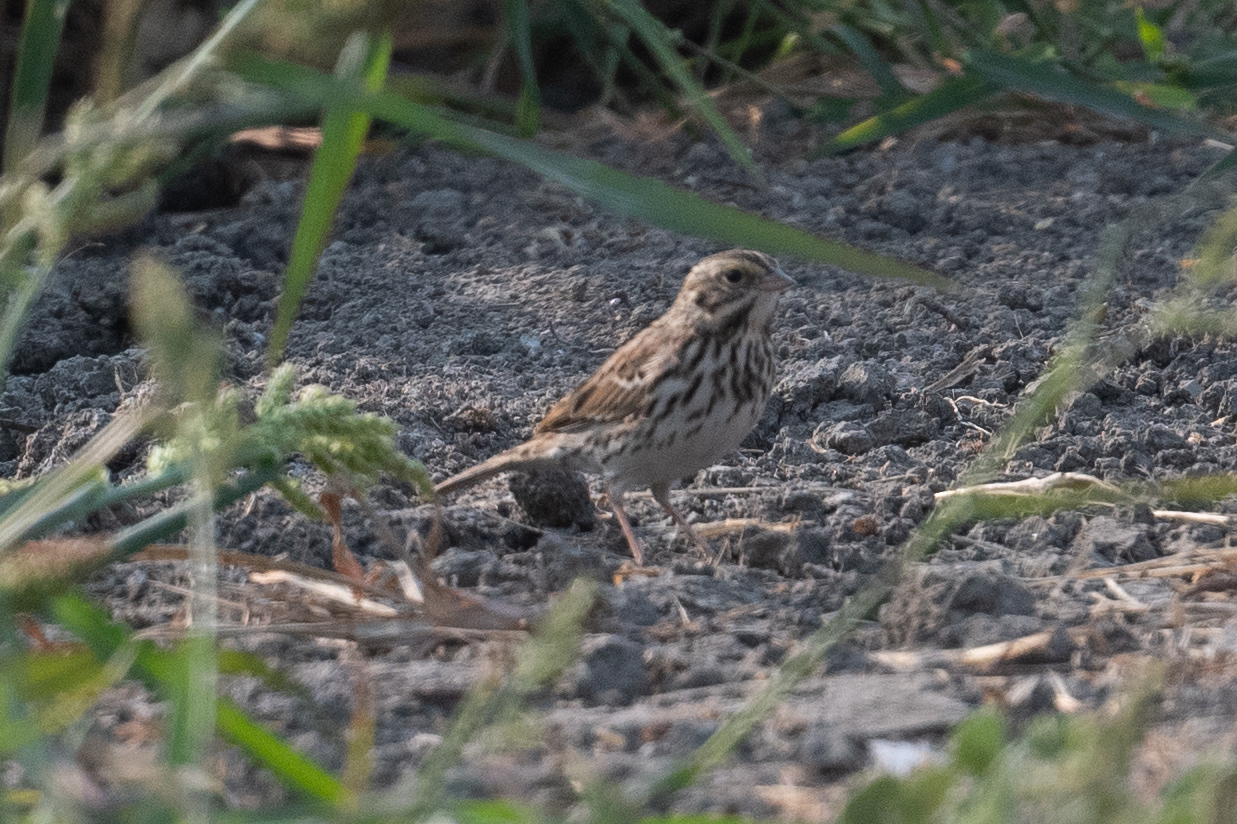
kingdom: Animalia
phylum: Chordata
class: Aves
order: Passeriformes
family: Passerellidae
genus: Passerculus
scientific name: Passerculus sandwichensis
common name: Savannah sparrow
